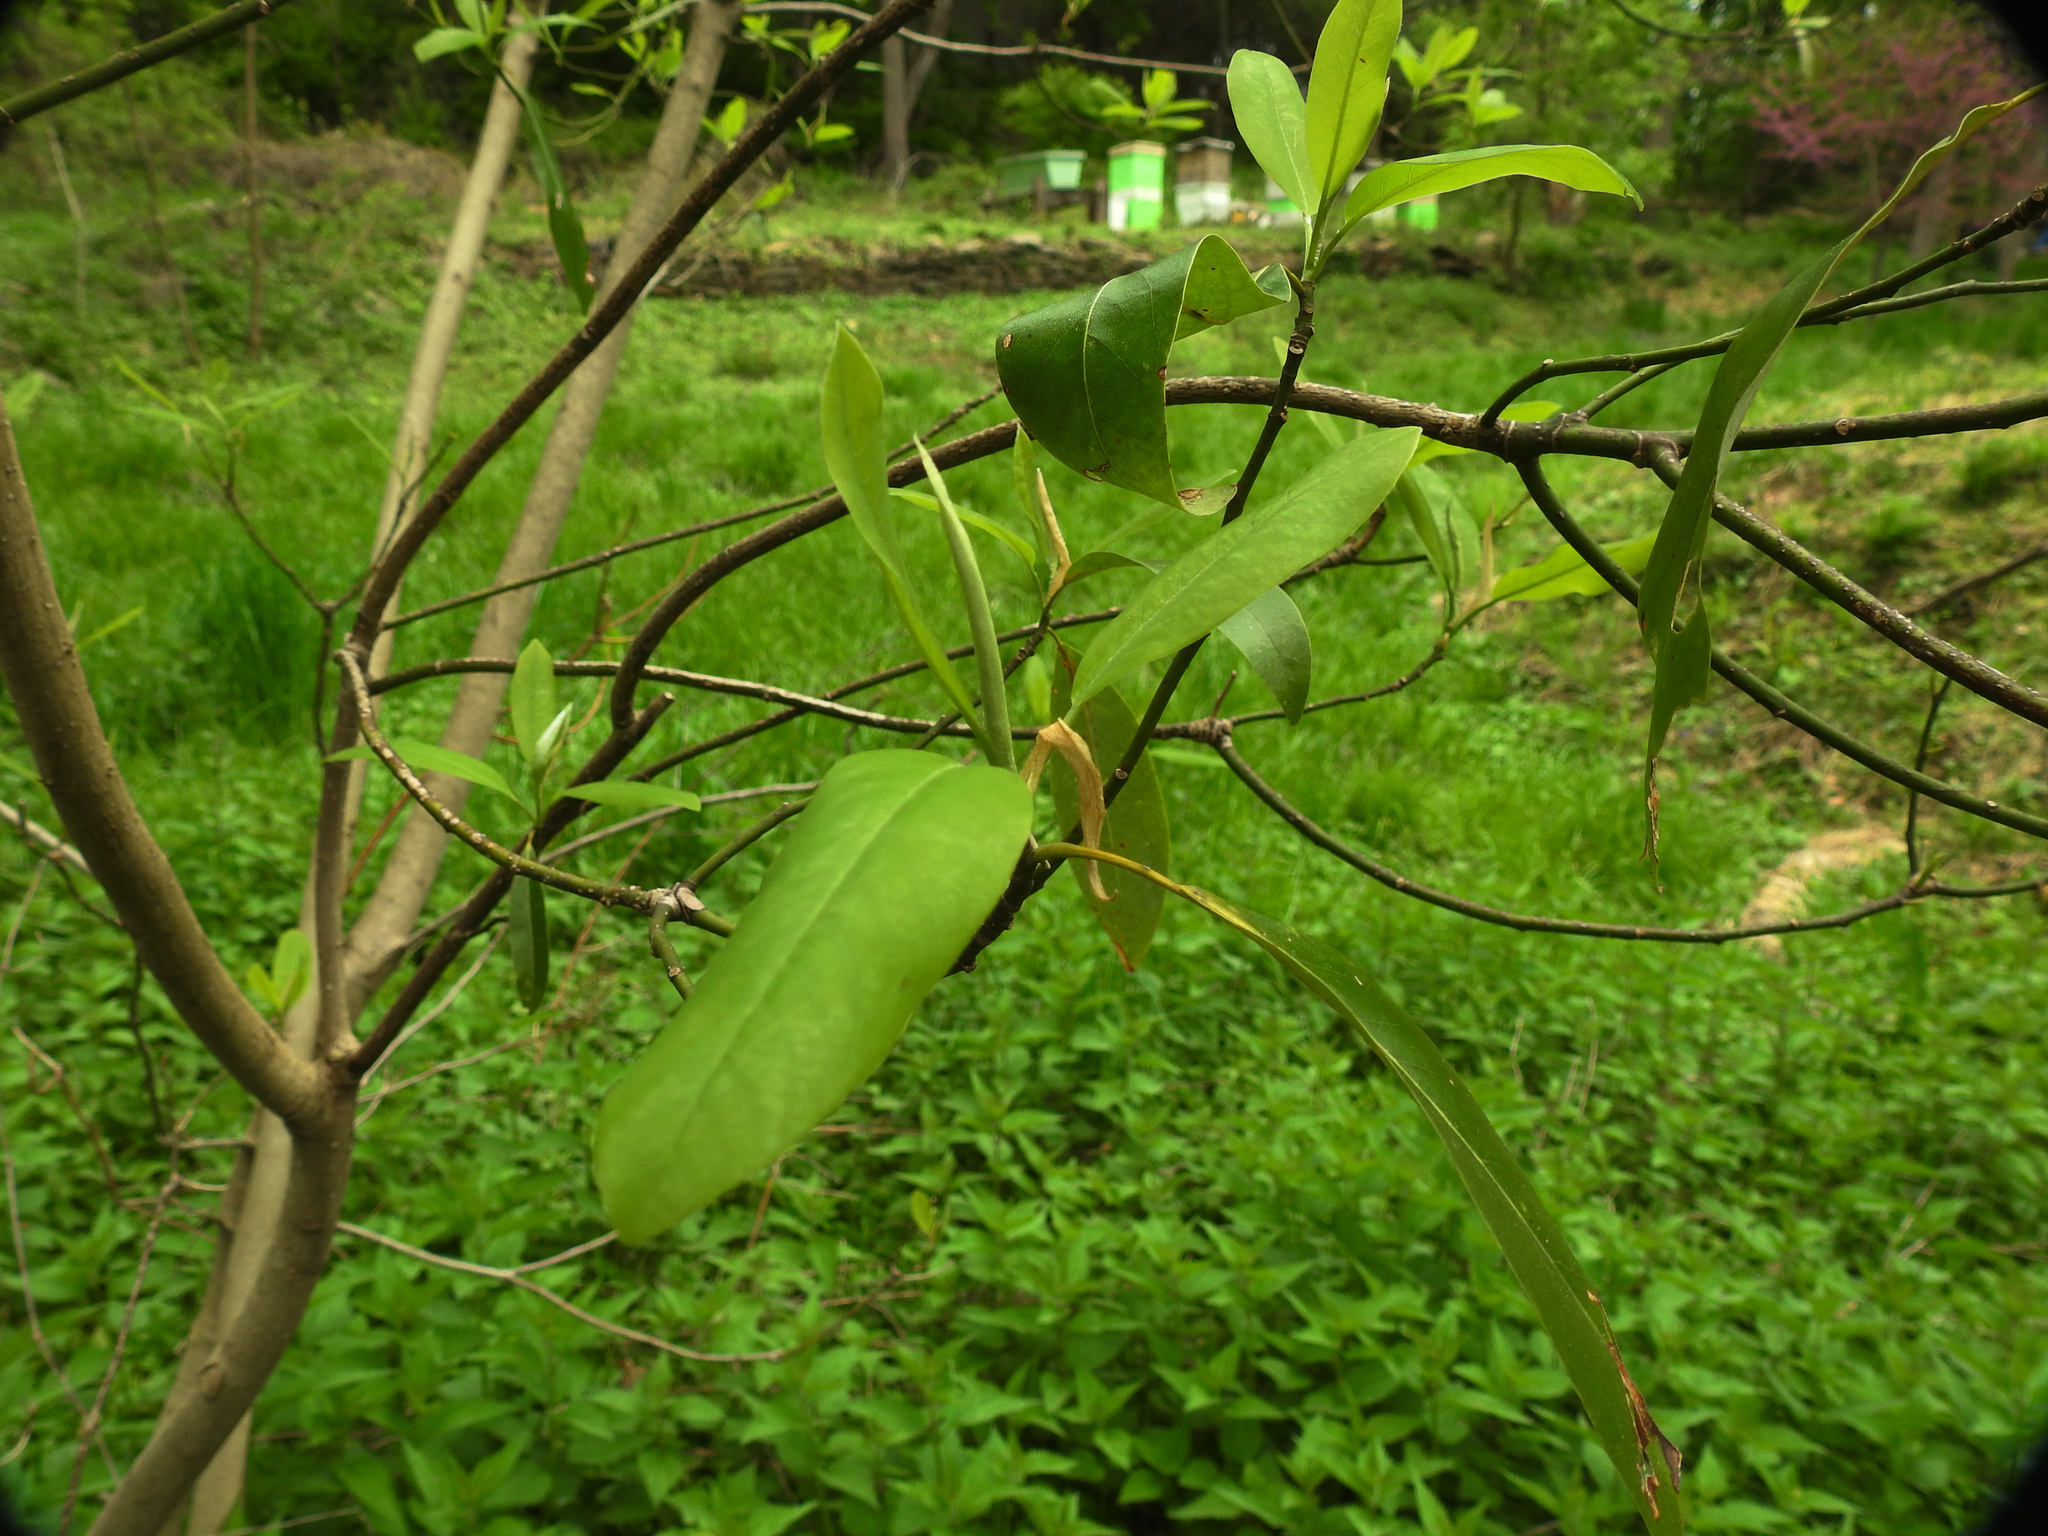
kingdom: Plantae
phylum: Tracheophyta
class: Magnoliopsida
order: Magnoliales
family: Magnoliaceae
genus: Magnolia
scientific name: Magnolia virginiana
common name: Swamp bay
